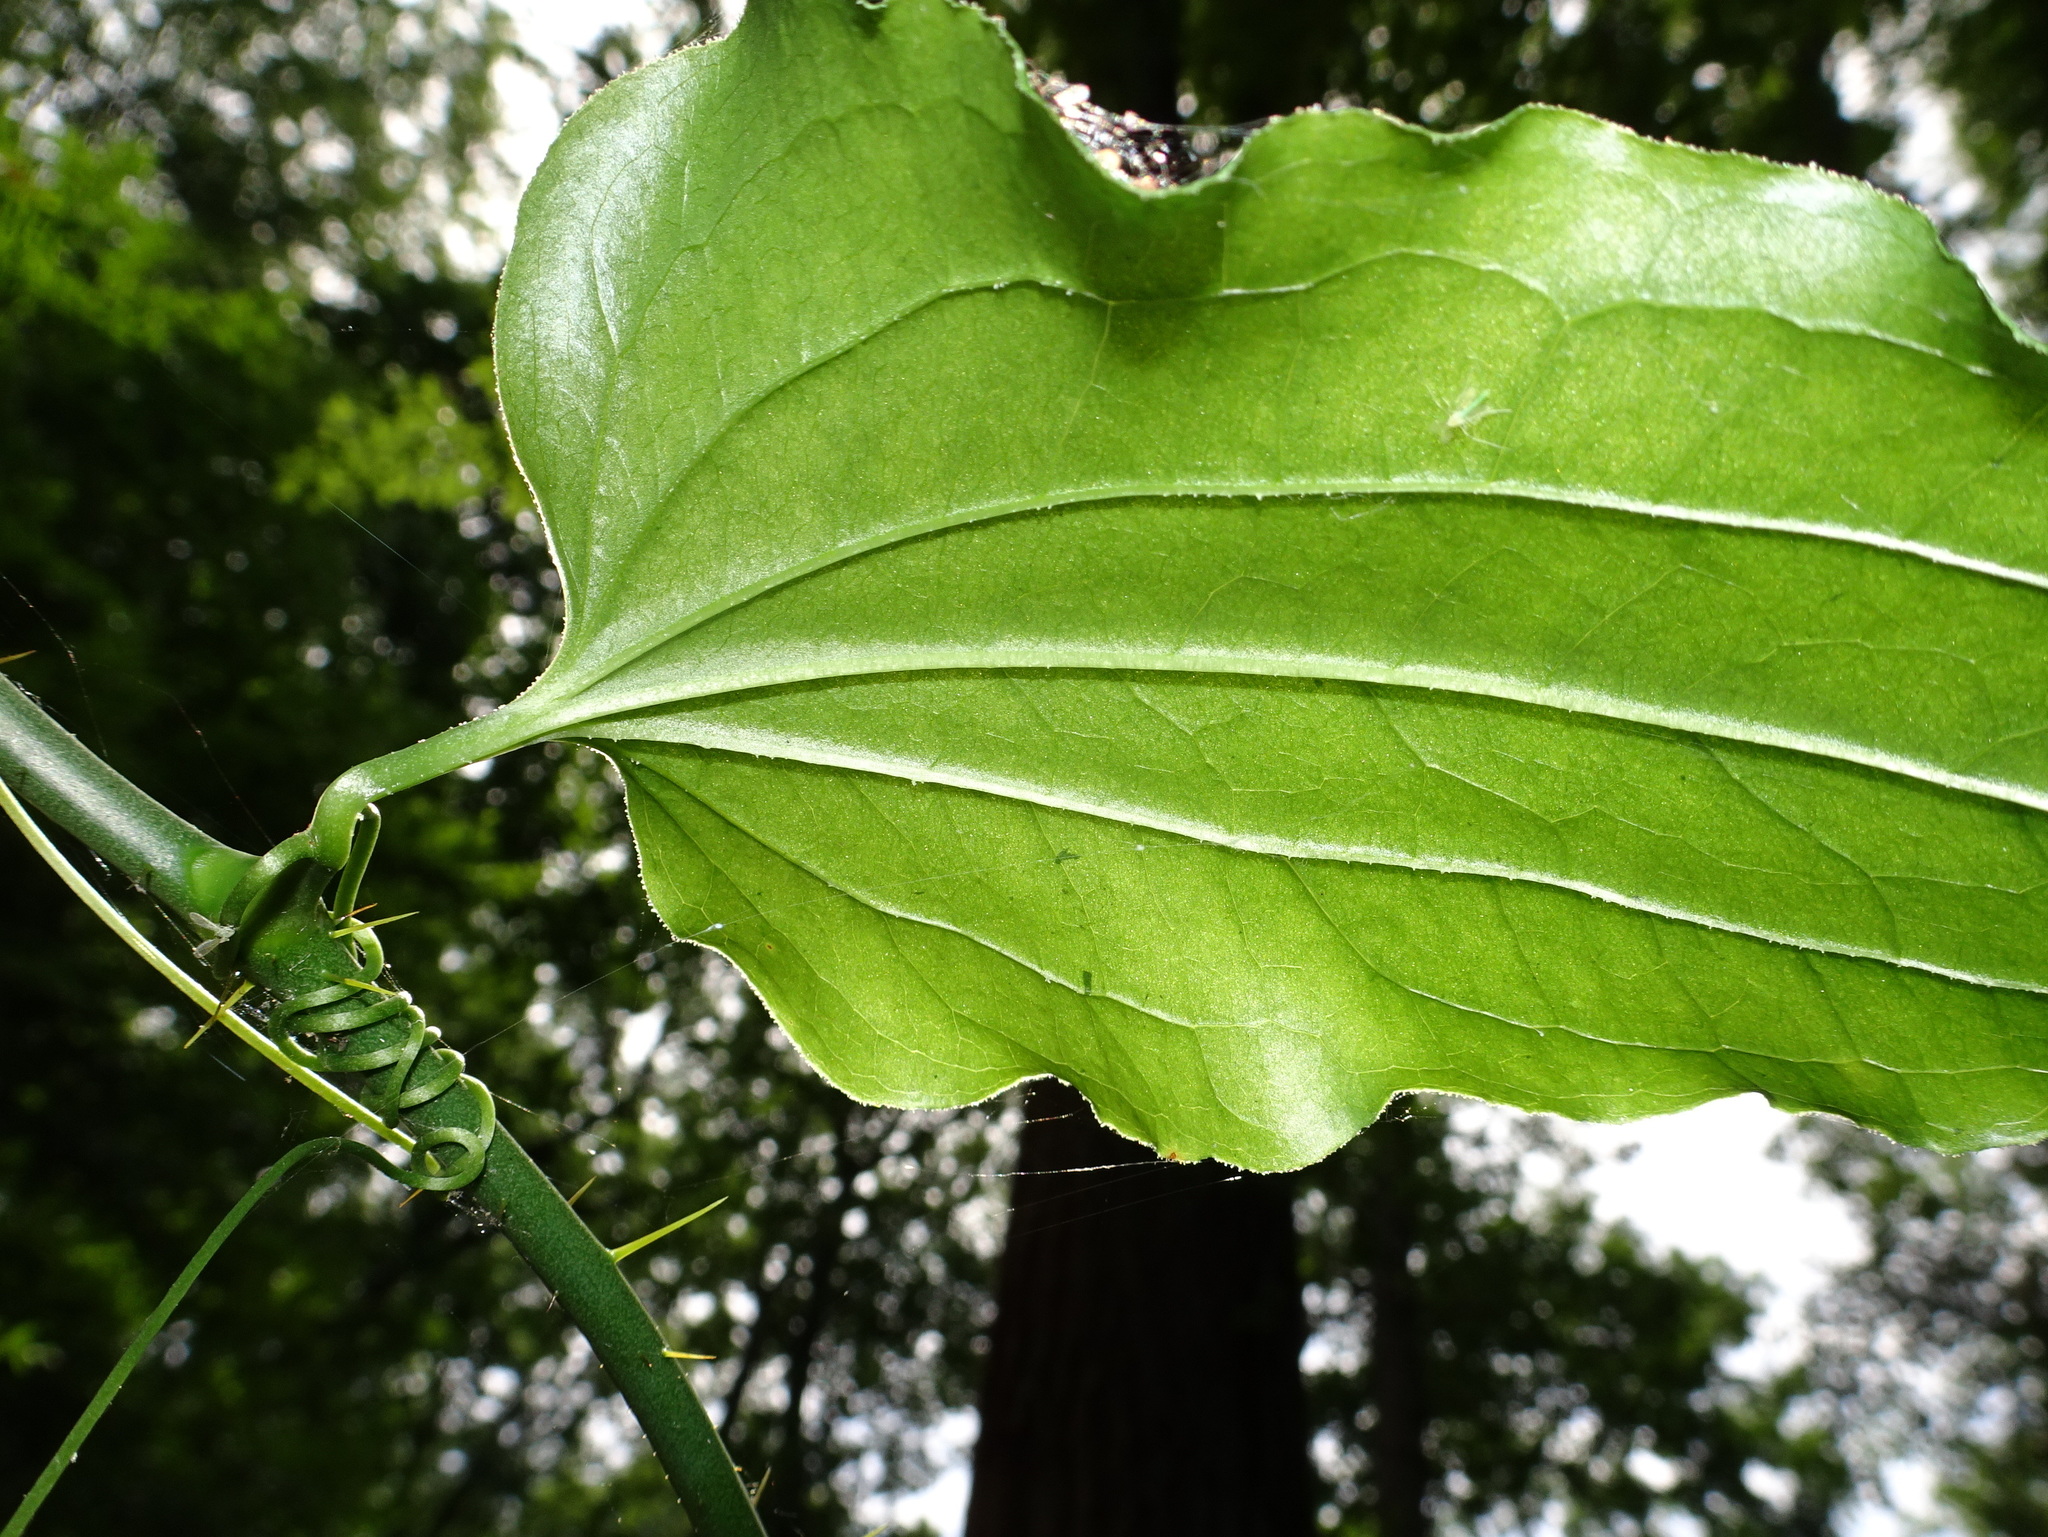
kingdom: Plantae
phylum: Tracheophyta
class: Liliopsida
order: Liliales
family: Smilacaceae
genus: Smilax
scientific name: Smilax tamnoides
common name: Hellfetter
